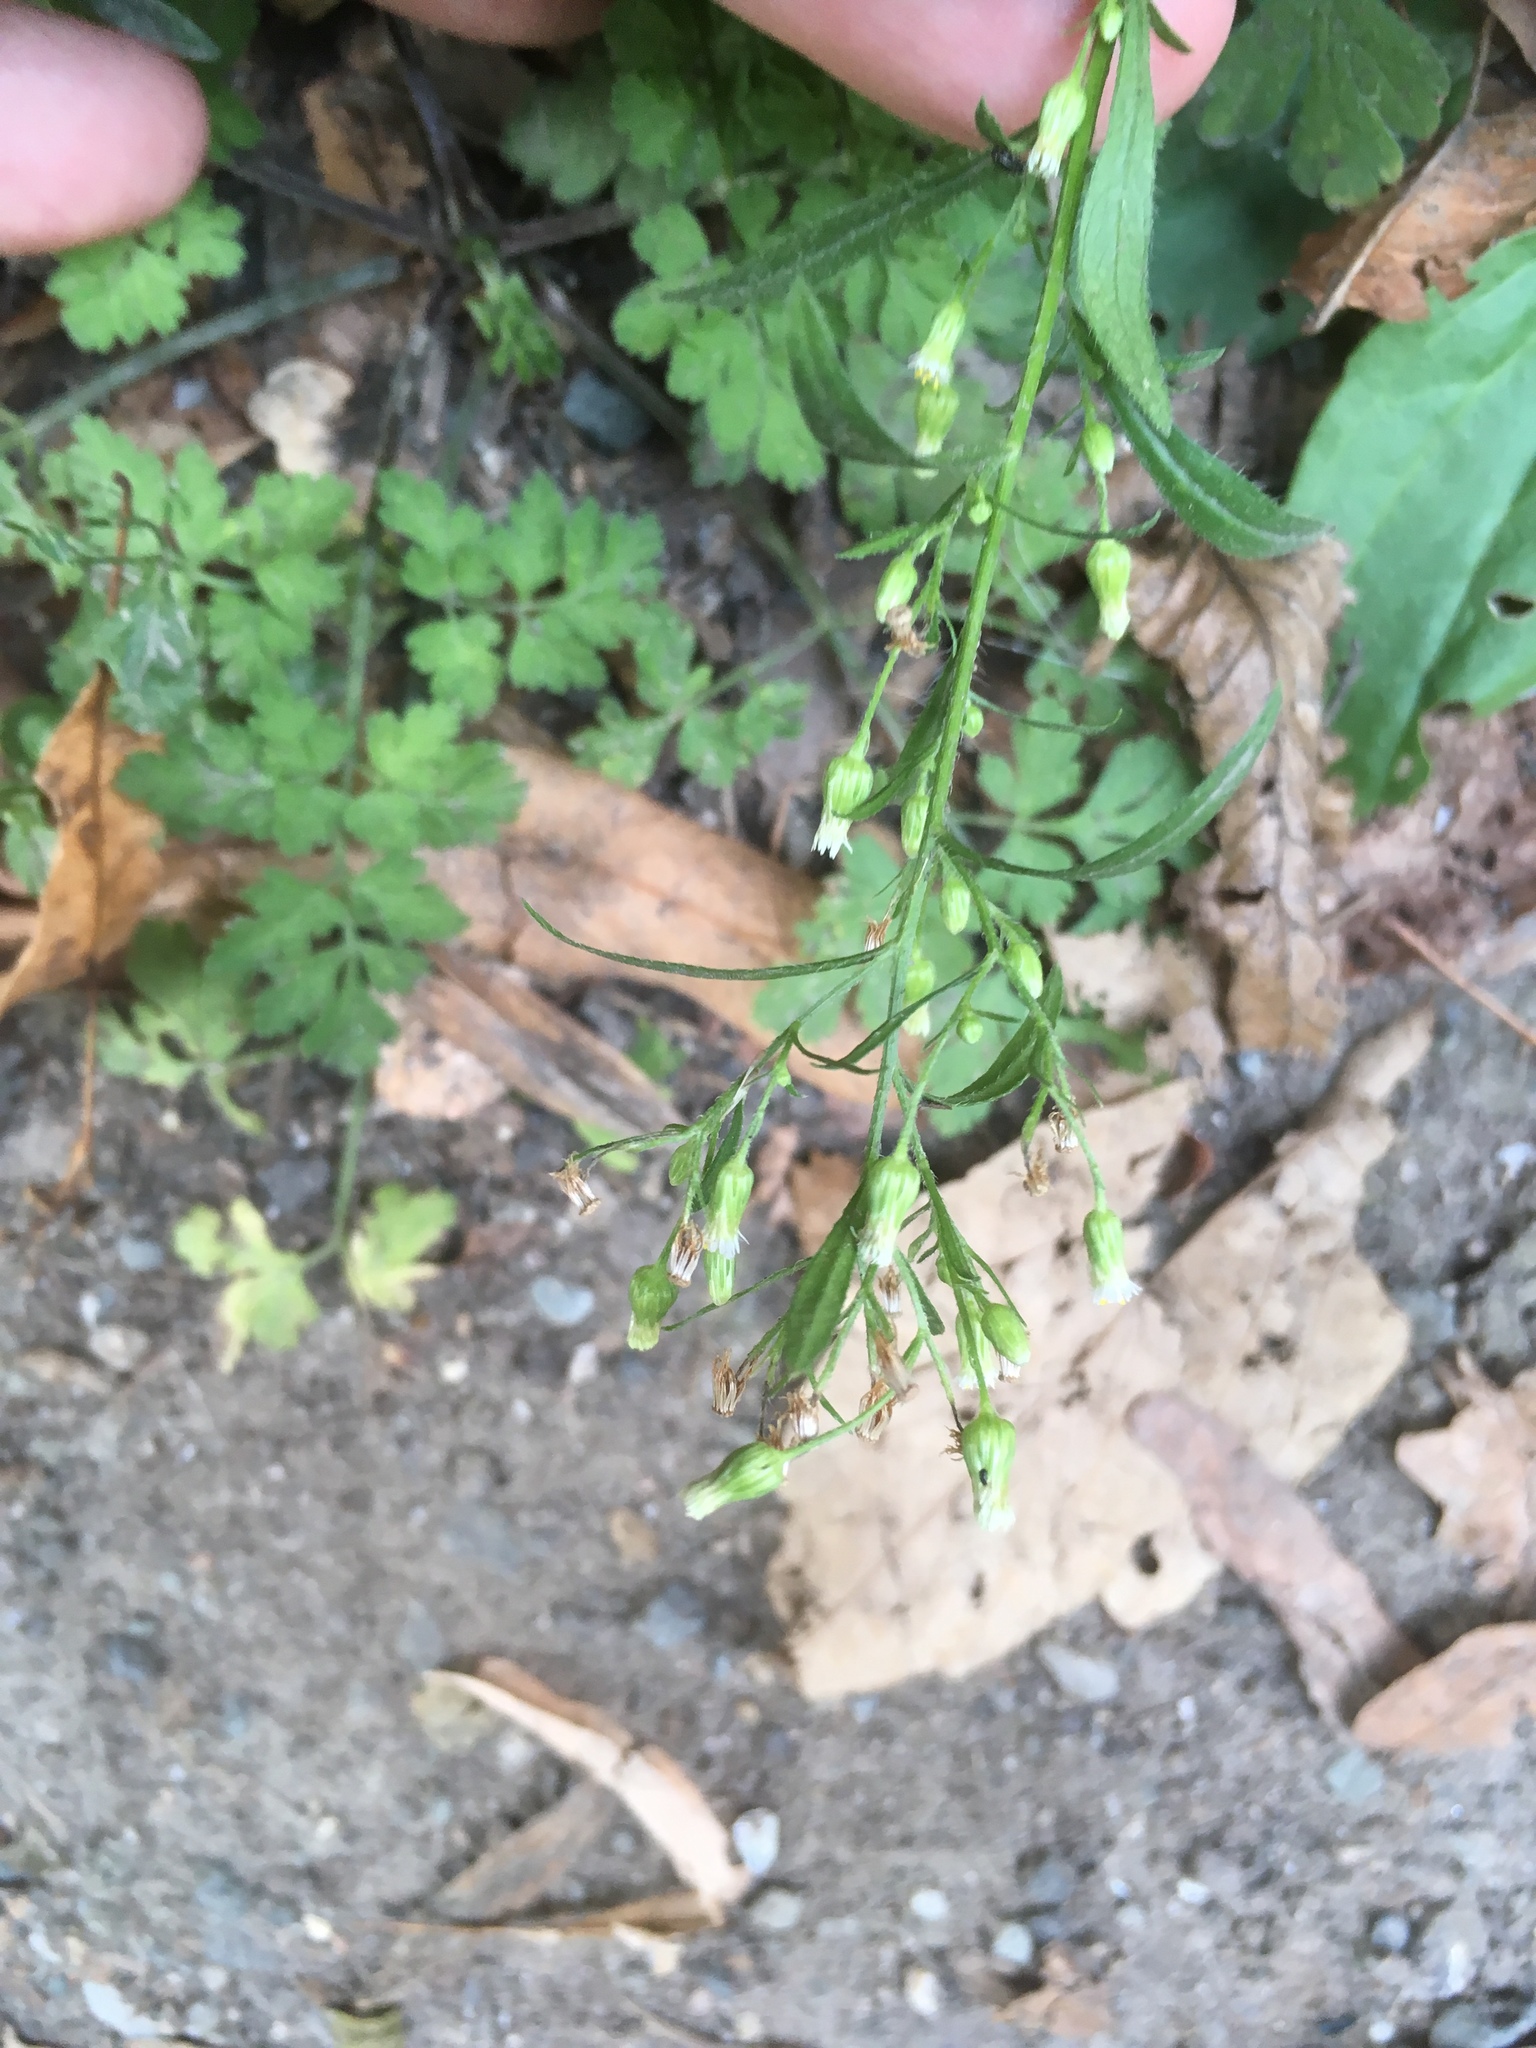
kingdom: Plantae
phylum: Tracheophyta
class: Magnoliopsida
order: Asterales
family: Asteraceae
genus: Erigeron
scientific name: Erigeron canadensis
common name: Canadian fleabane
